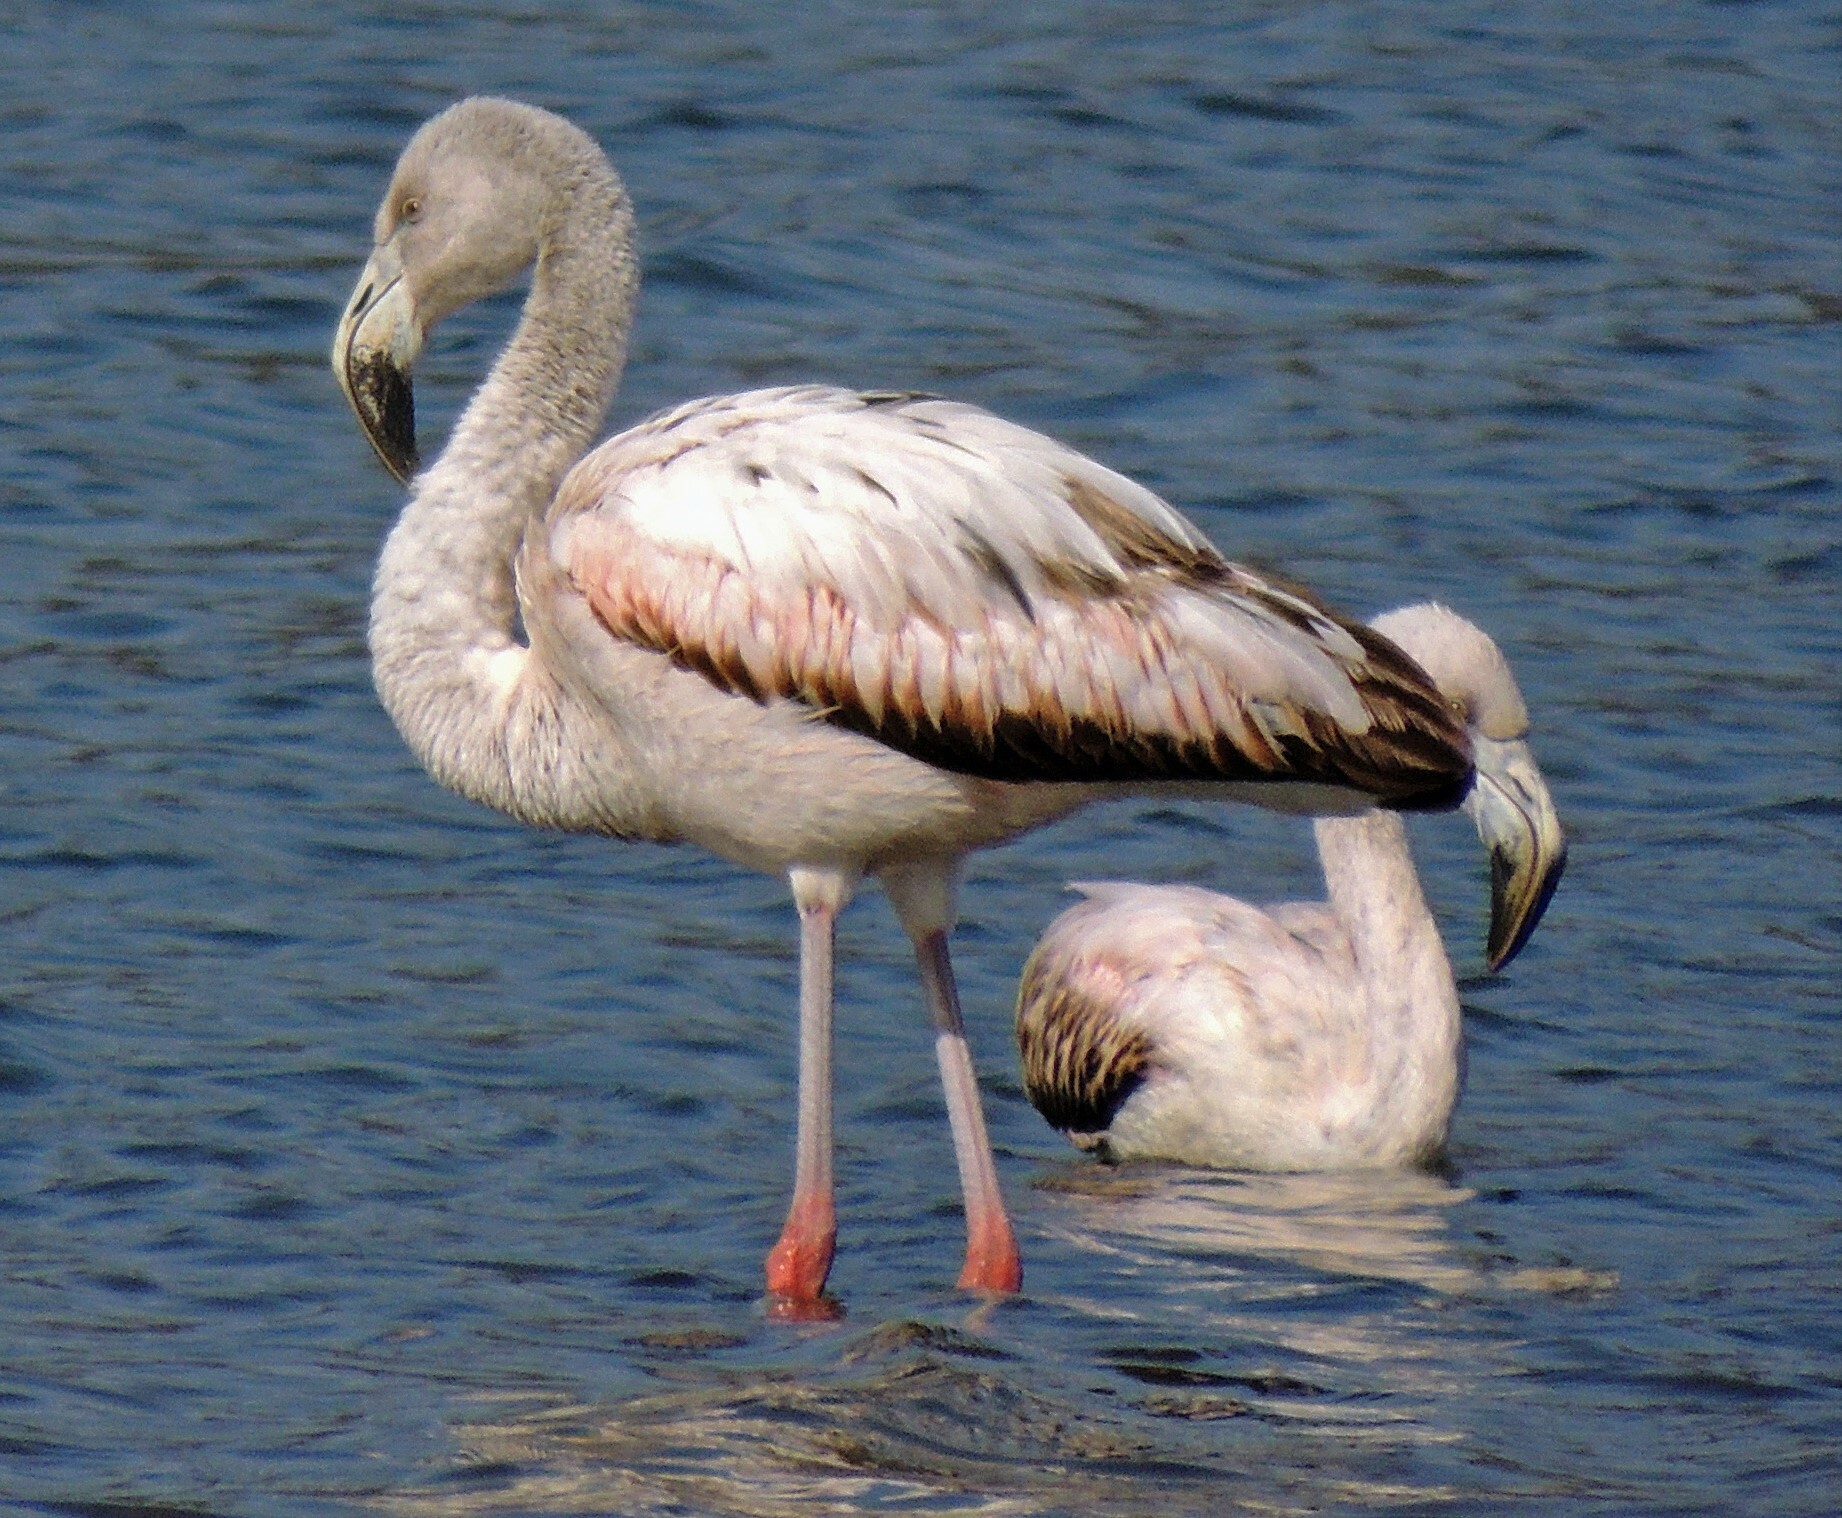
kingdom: Animalia
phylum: Chordata
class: Aves
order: Phoenicopteriformes
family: Phoenicopteridae
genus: Phoenicopterus
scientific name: Phoenicopterus chilensis
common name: Chilean flamingo
